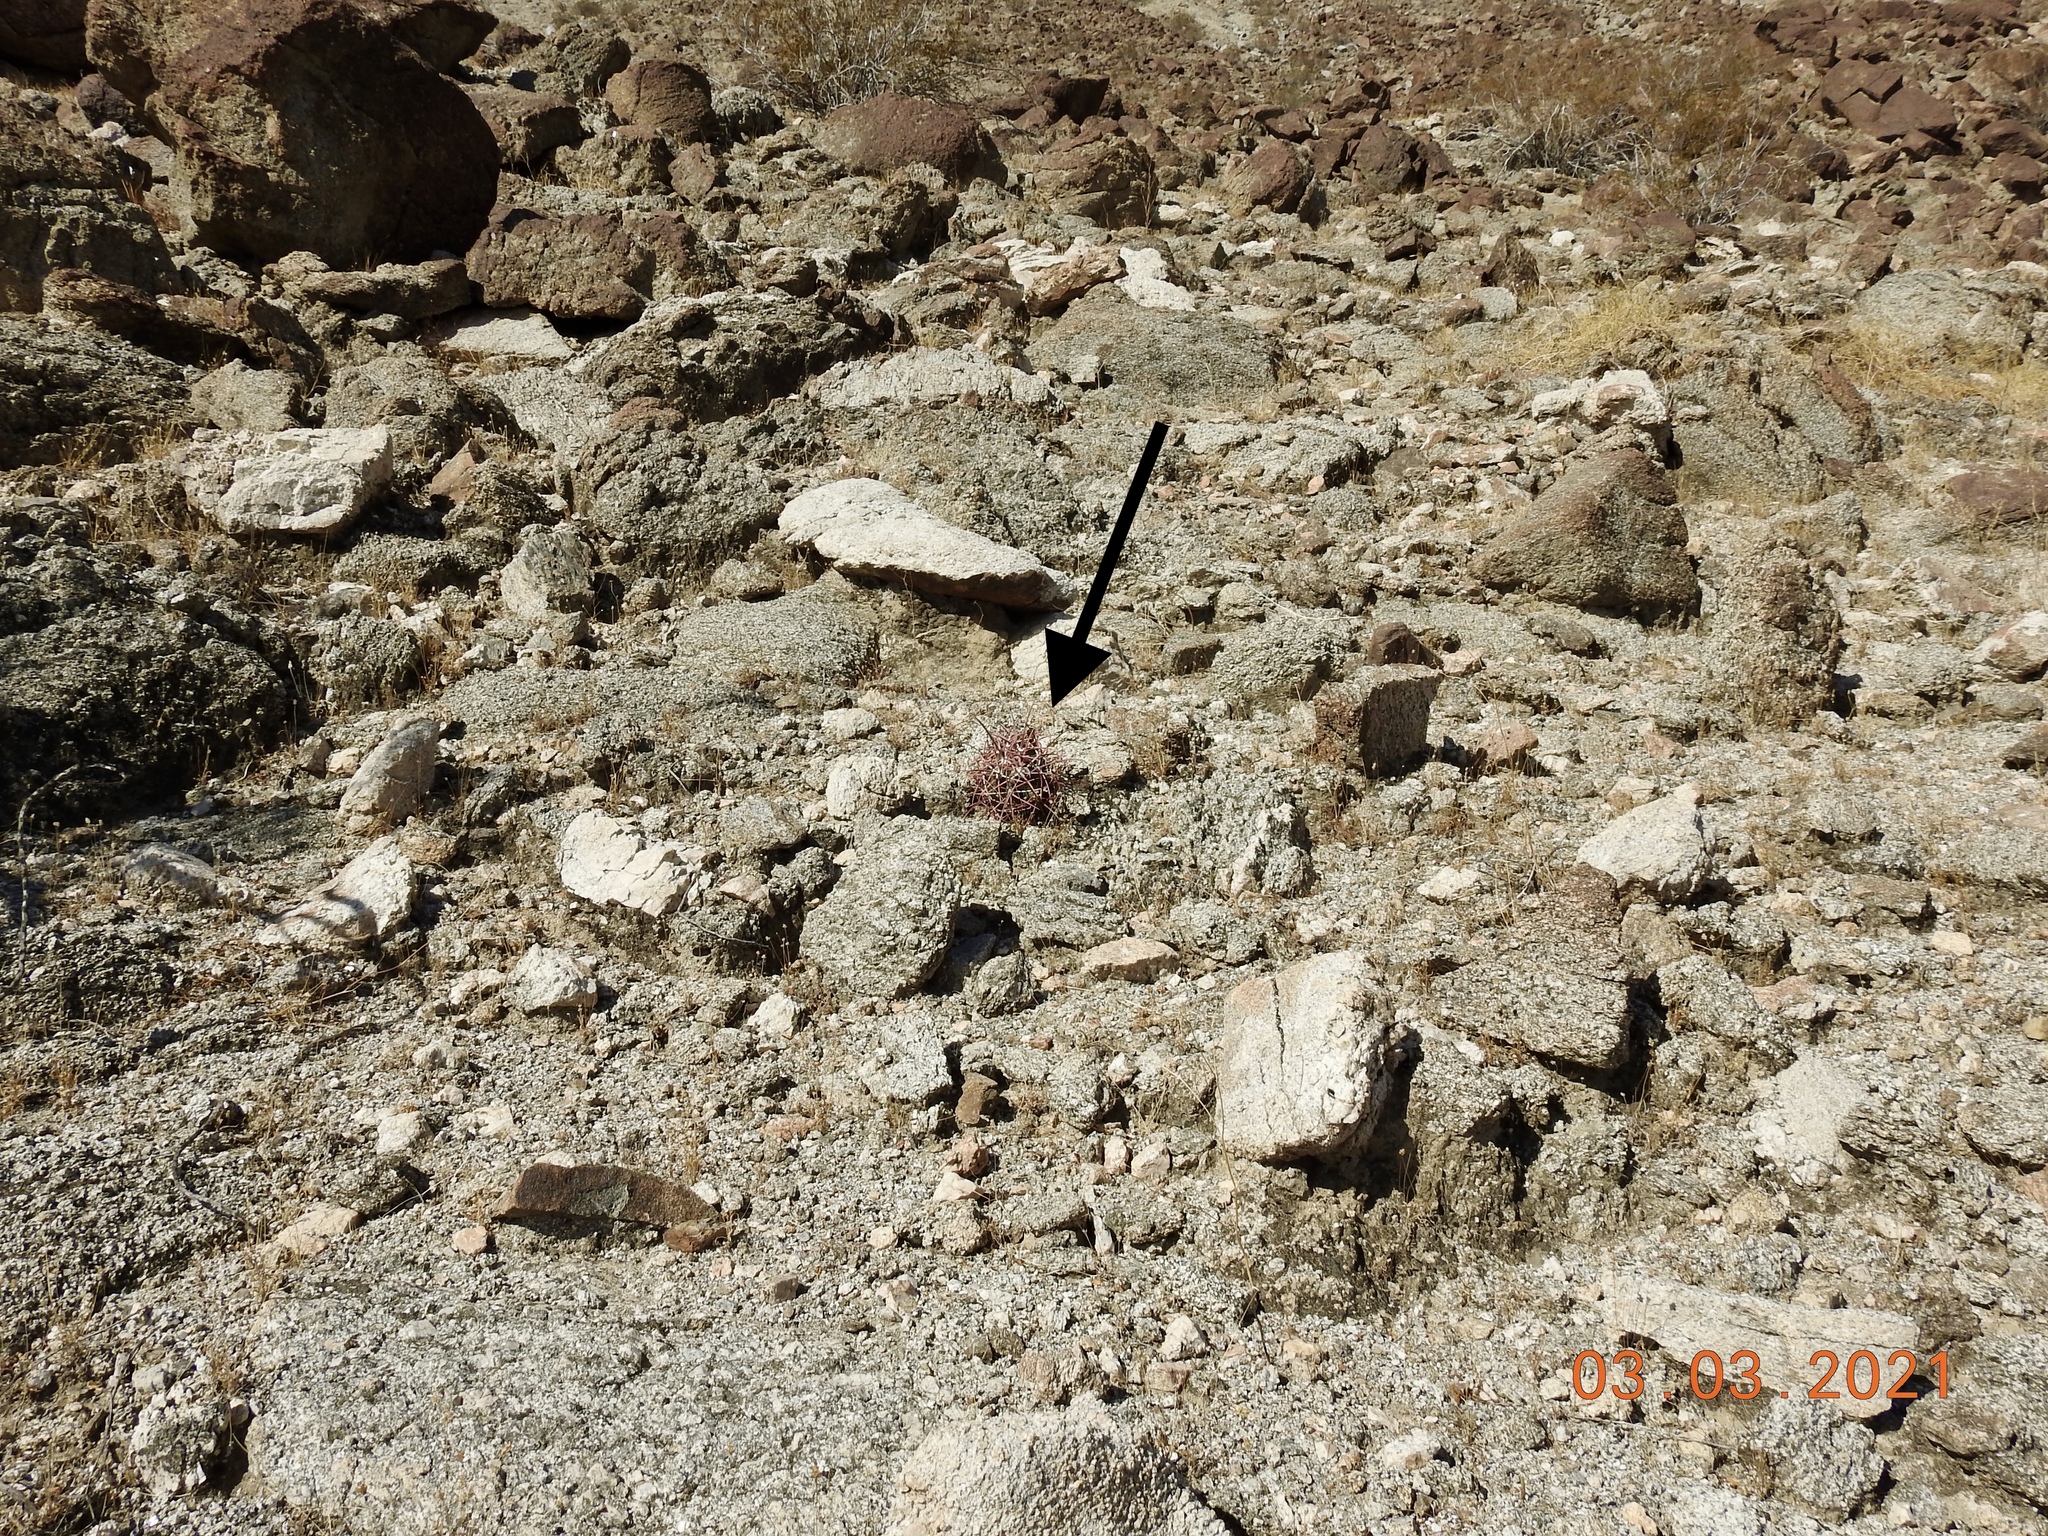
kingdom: Plantae
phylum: Tracheophyta
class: Magnoliopsida
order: Caryophyllales
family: Cactaceae
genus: Ferocactus
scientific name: Ferocactus cylindraceus
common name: California barrel cactus
